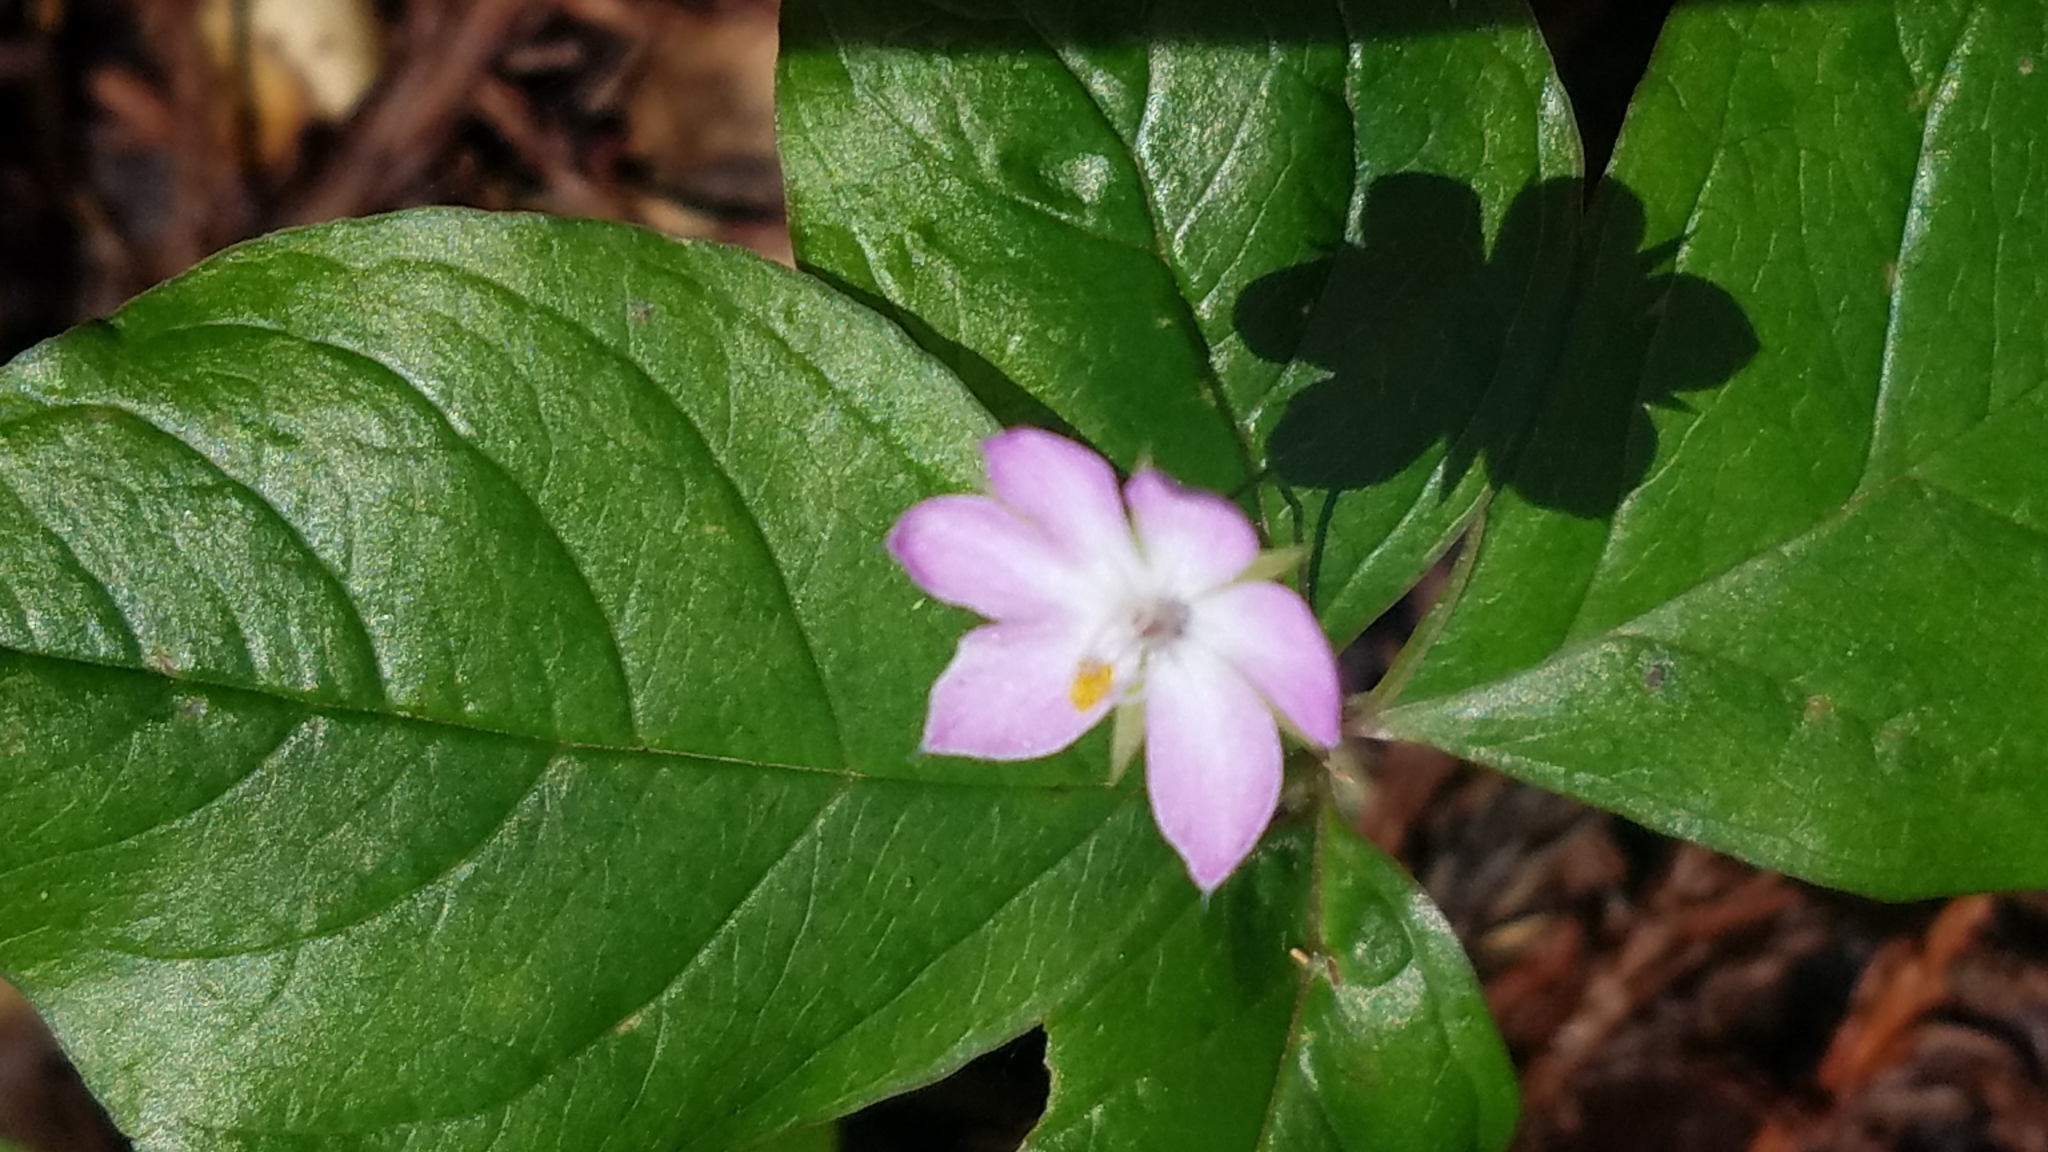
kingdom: Plantae
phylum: Tracheophyta
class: Magnoliopsida
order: Ericales
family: Primulaceae
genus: Lysimachia
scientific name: Lysimachia latifolia
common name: Pacific starflower
